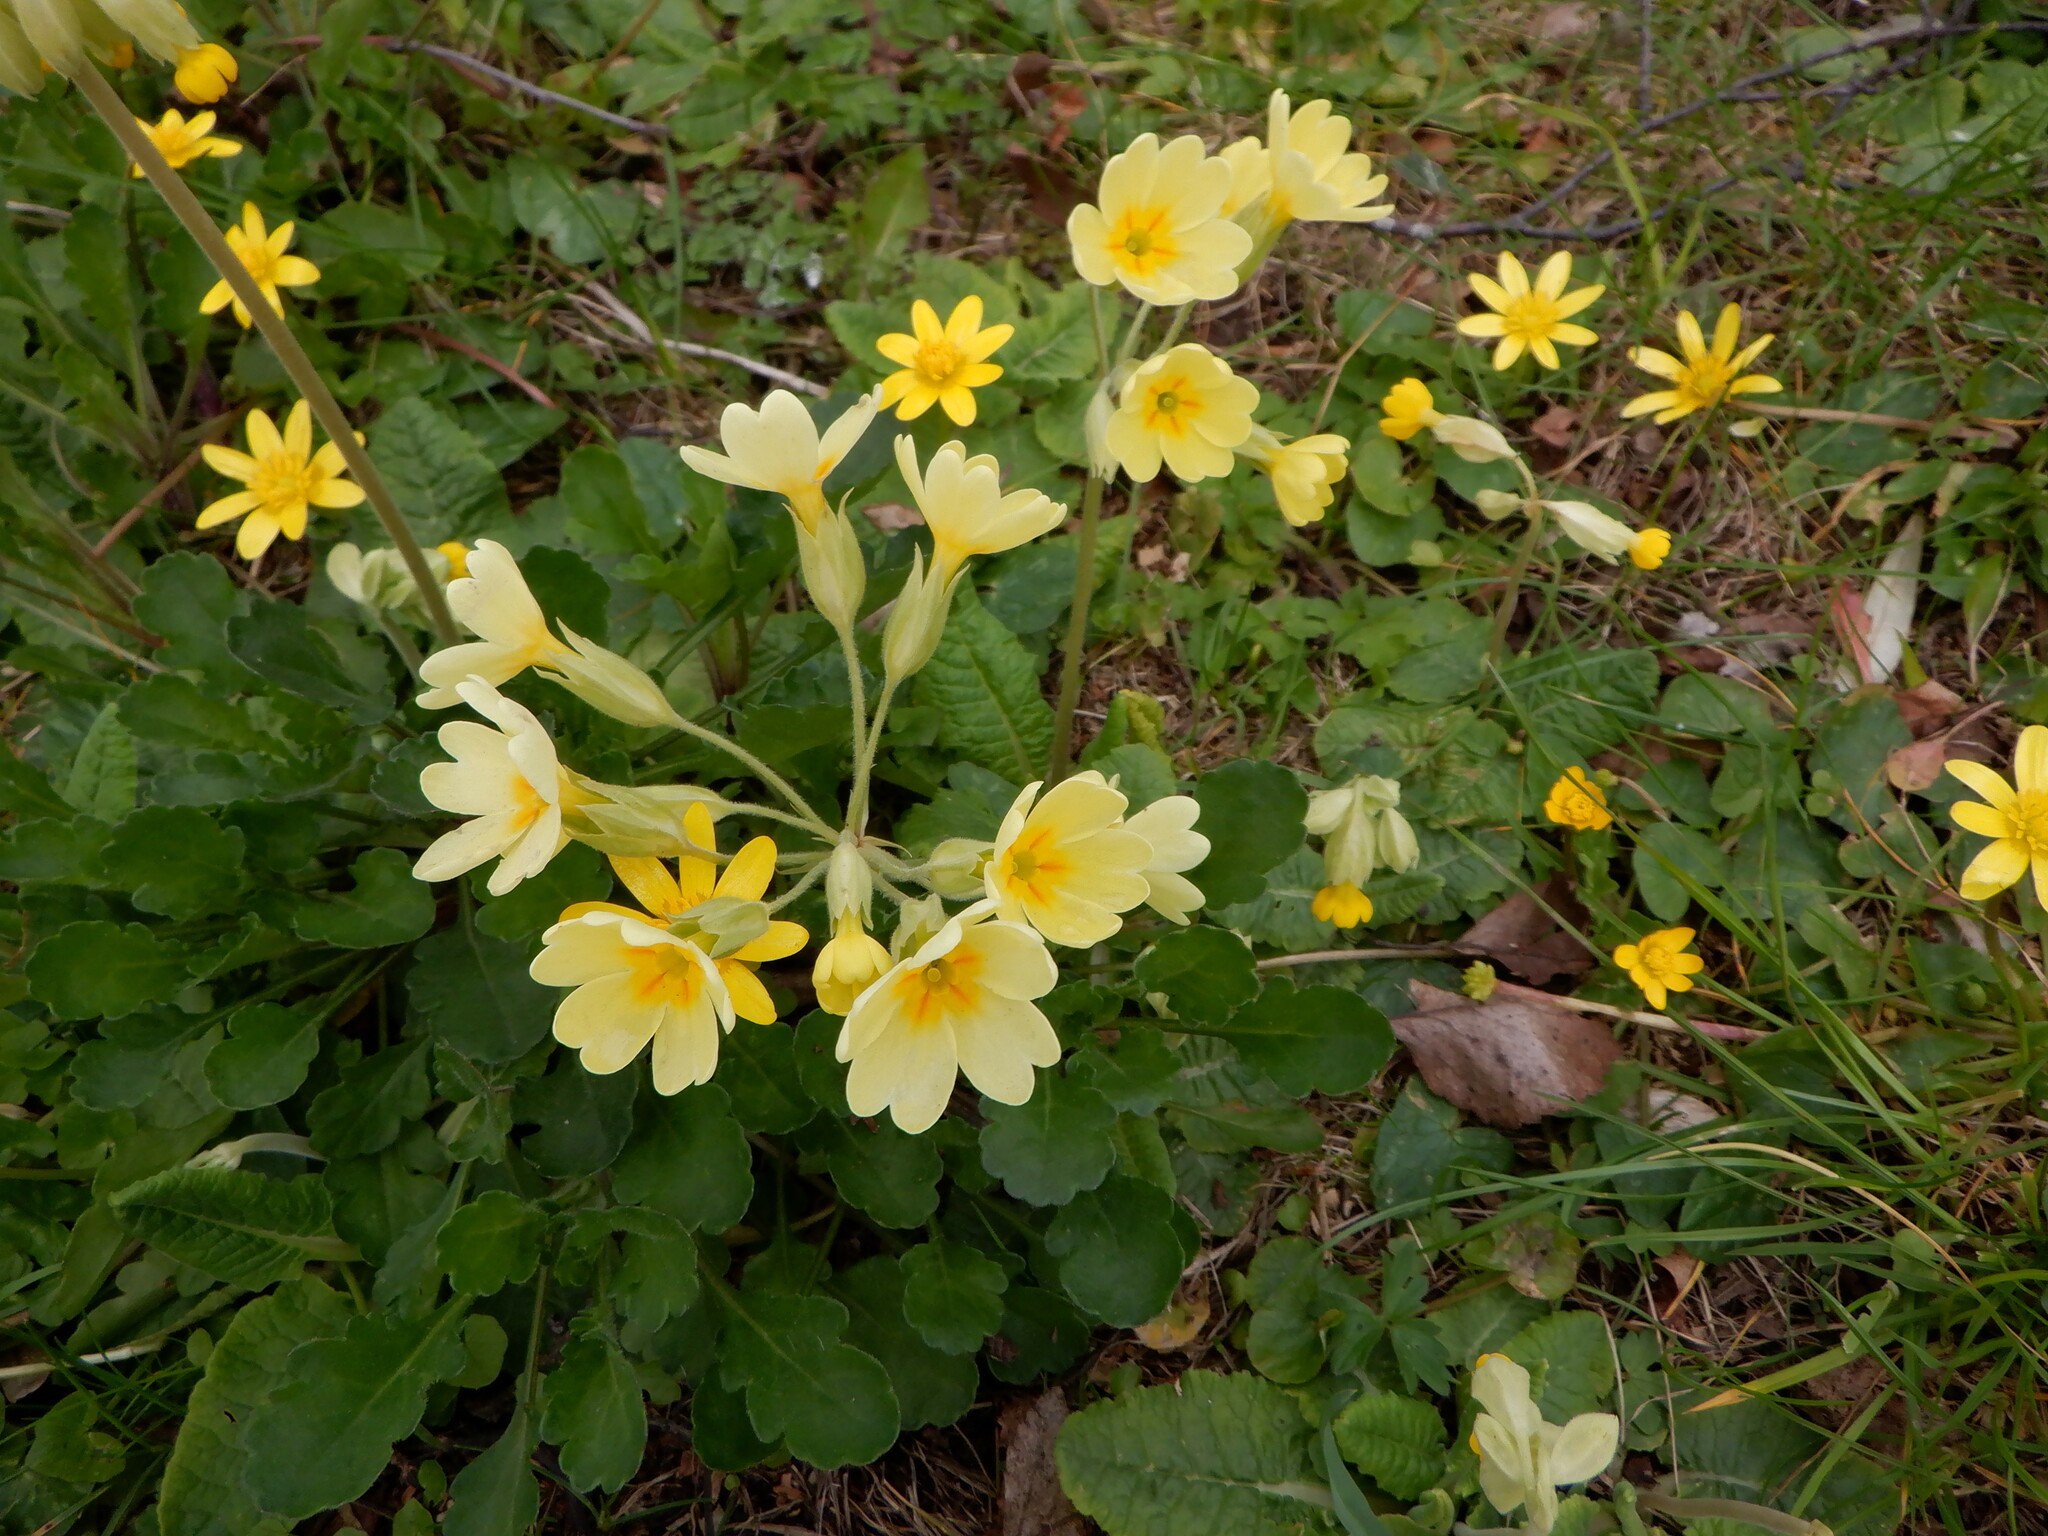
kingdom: Plantae
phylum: Tracheophyta
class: Magnoliopsida
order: Ericales
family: Primulaceae
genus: Primula
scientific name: Primula polyantha
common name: False oxlip
